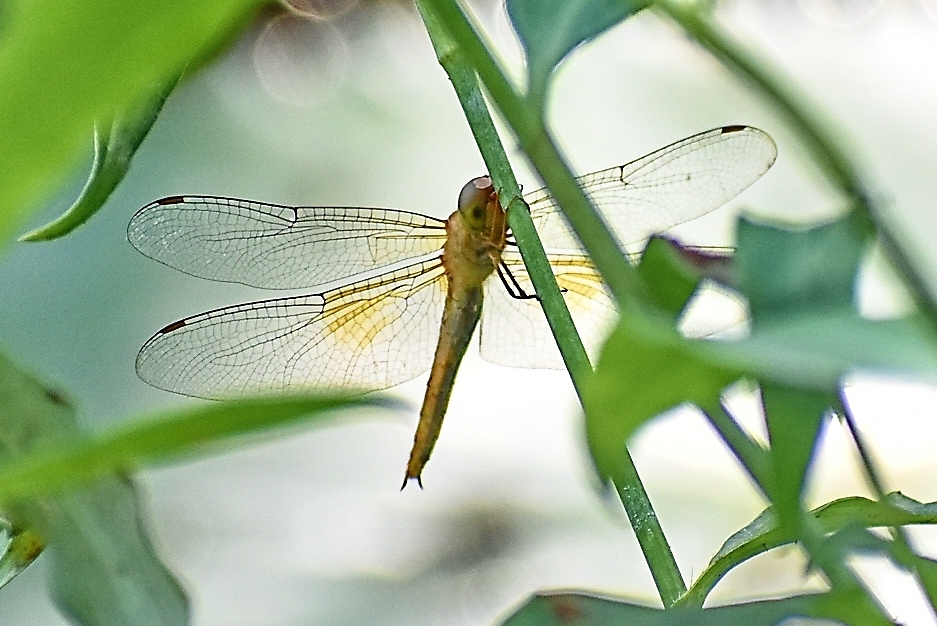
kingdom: Animalia
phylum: Arthropoda
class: Insecta
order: Odonata
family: Libellulidae
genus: Tholymis
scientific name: Tholymis tillarga
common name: Coral-tailed cloud wing
